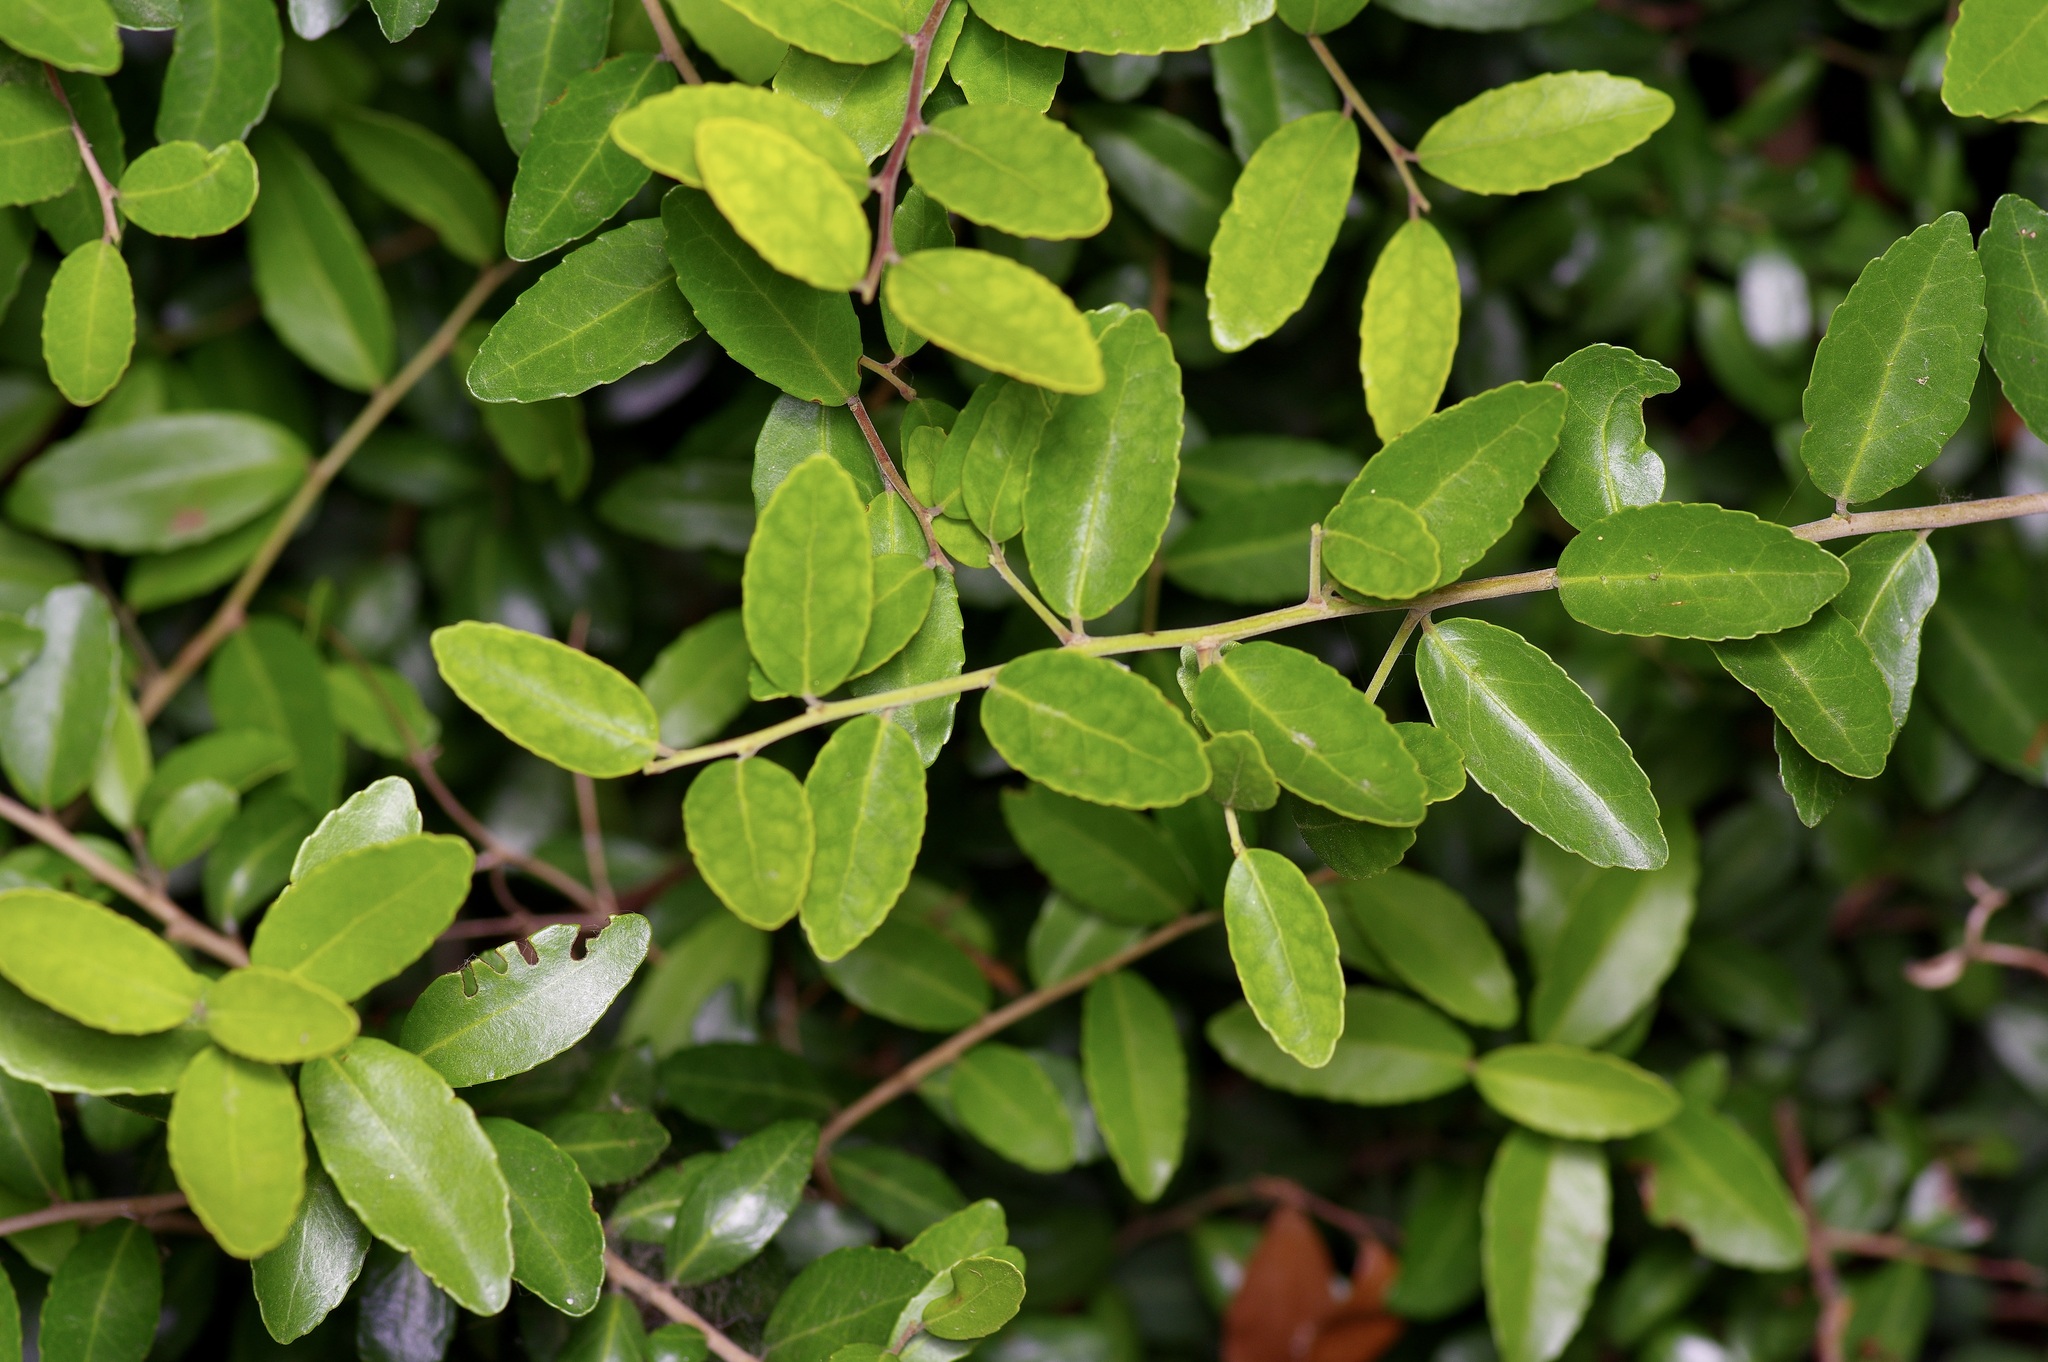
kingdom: Plantae
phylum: Tracheophyta
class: Magnoliopsida
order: Aquifoliales
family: Aquifoliaceae
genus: Ilex
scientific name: Ilex vomitoria
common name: Yaupon holly
